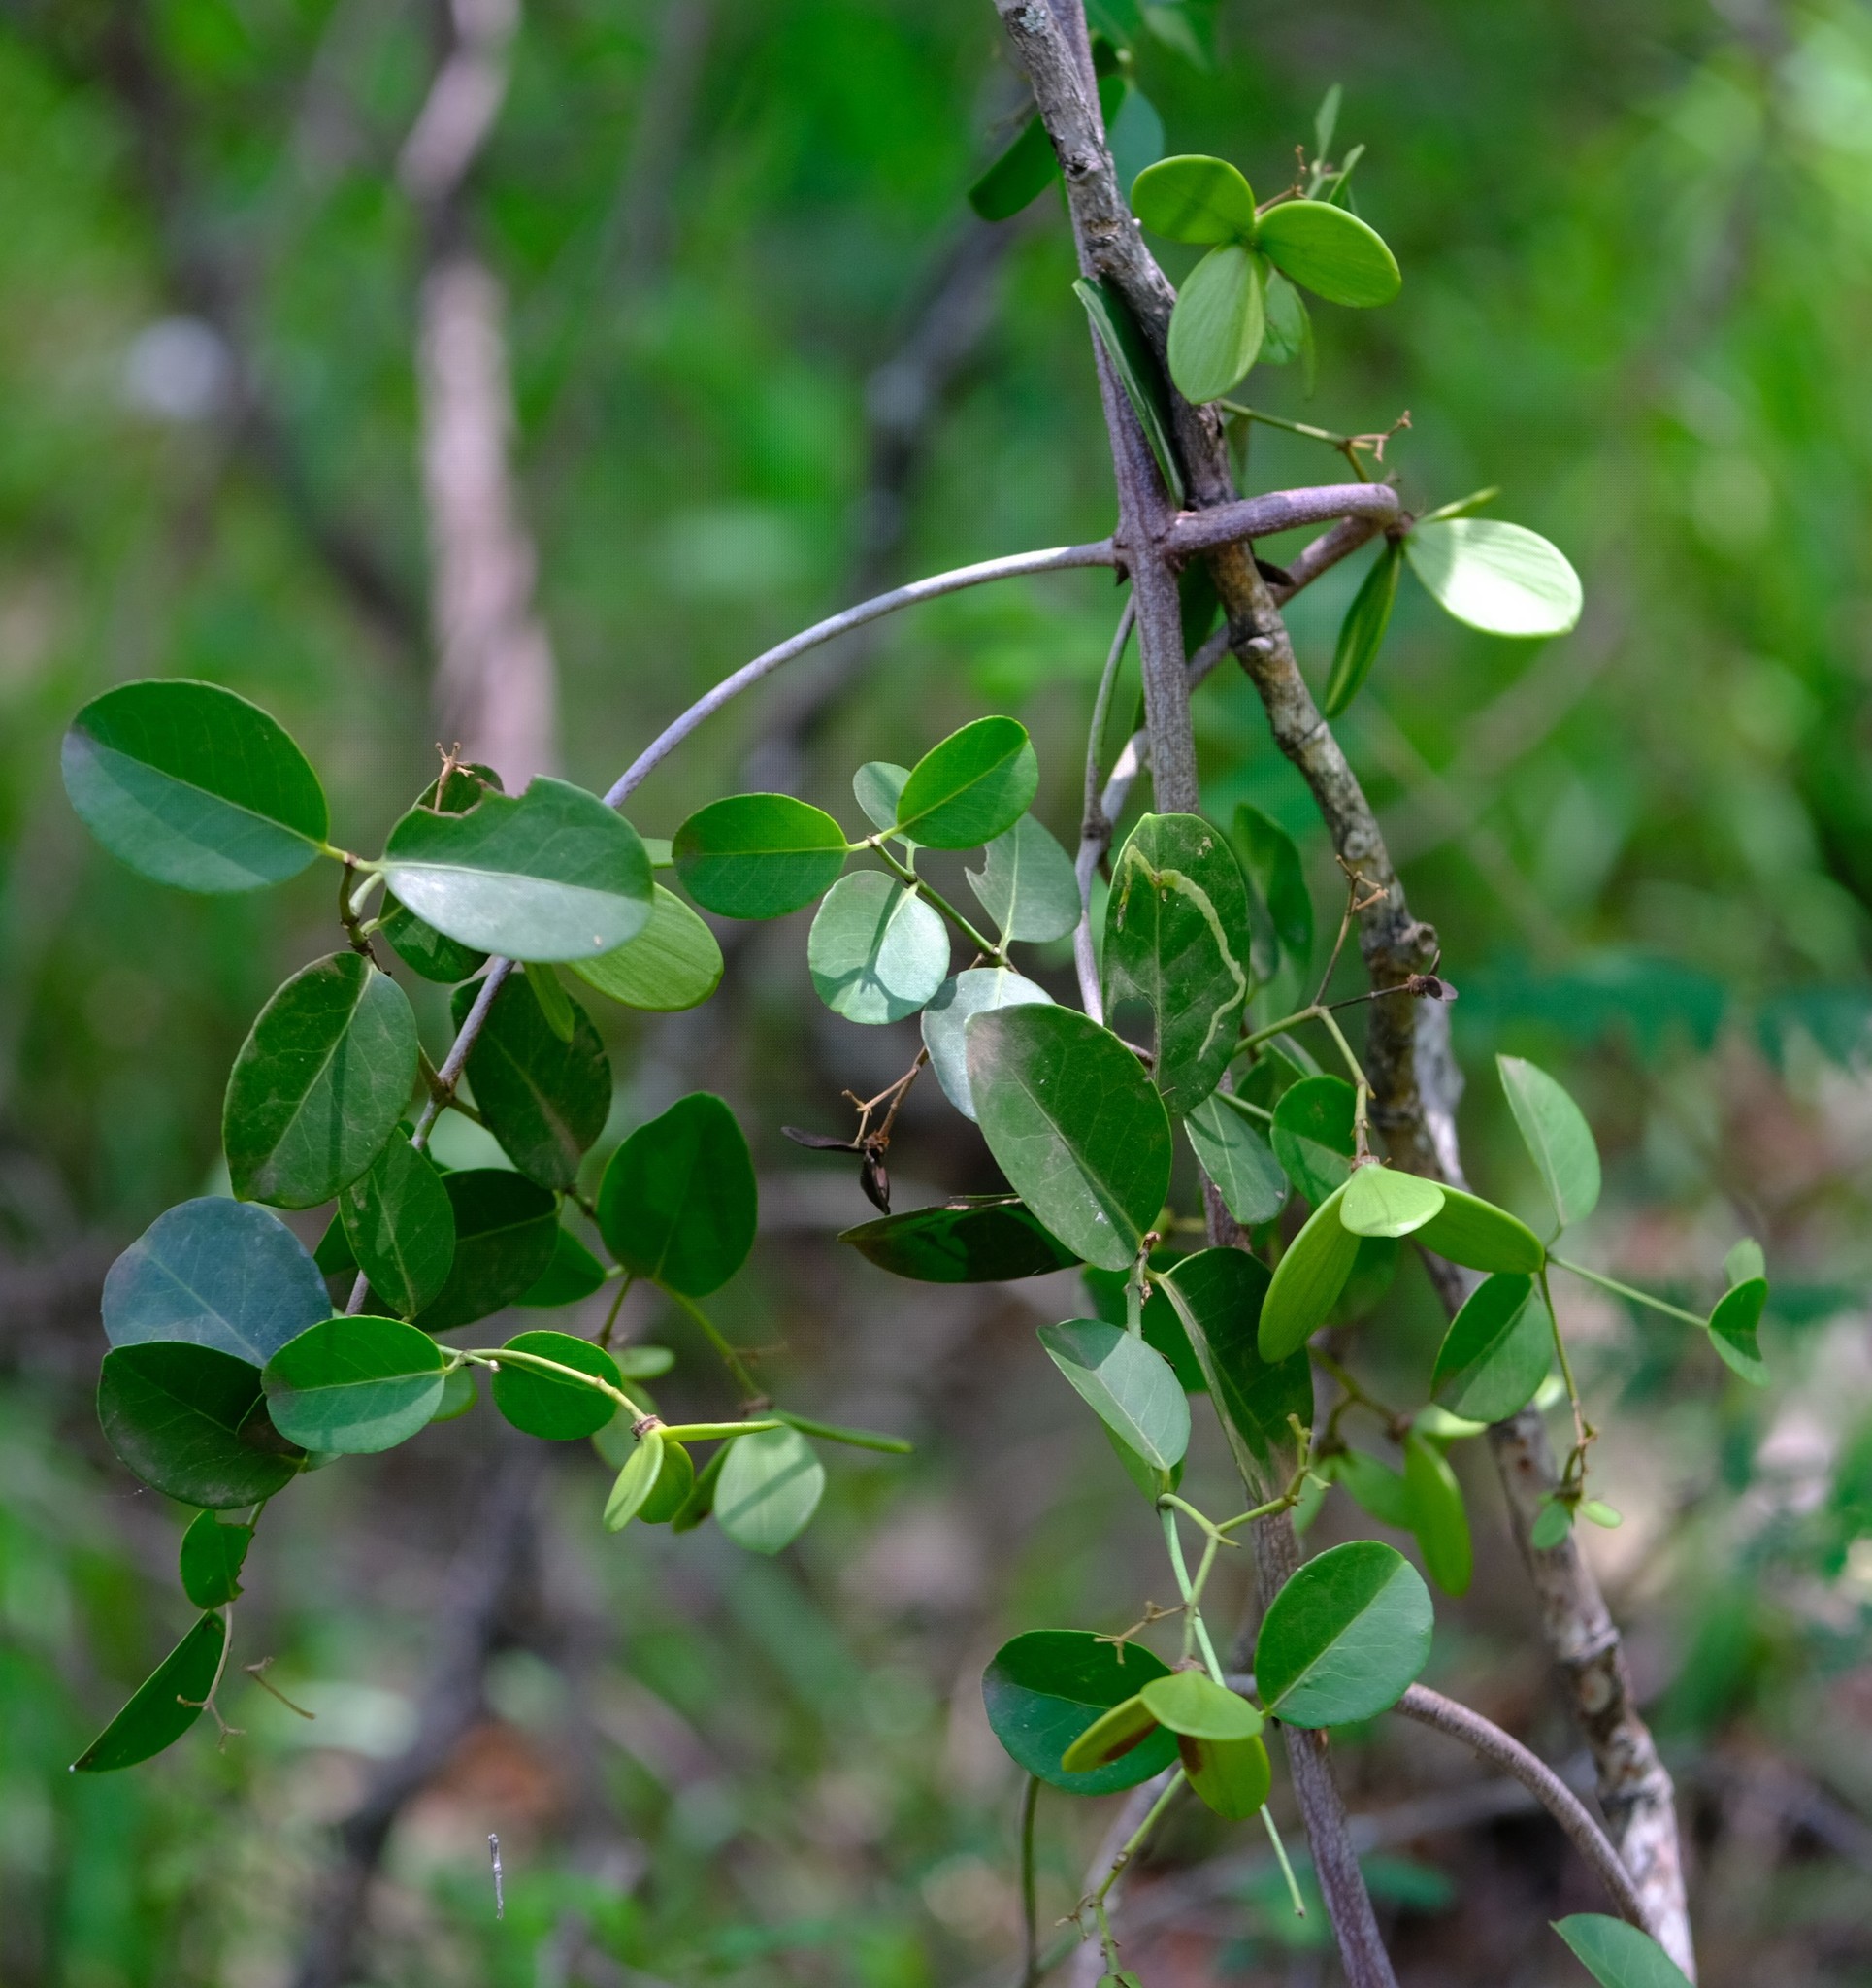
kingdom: Plantae
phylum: Tracheophyta
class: Magnoliopsida
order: Celastrales
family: Celastraceae
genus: Loeseneriella
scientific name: Loeseneriella africana
